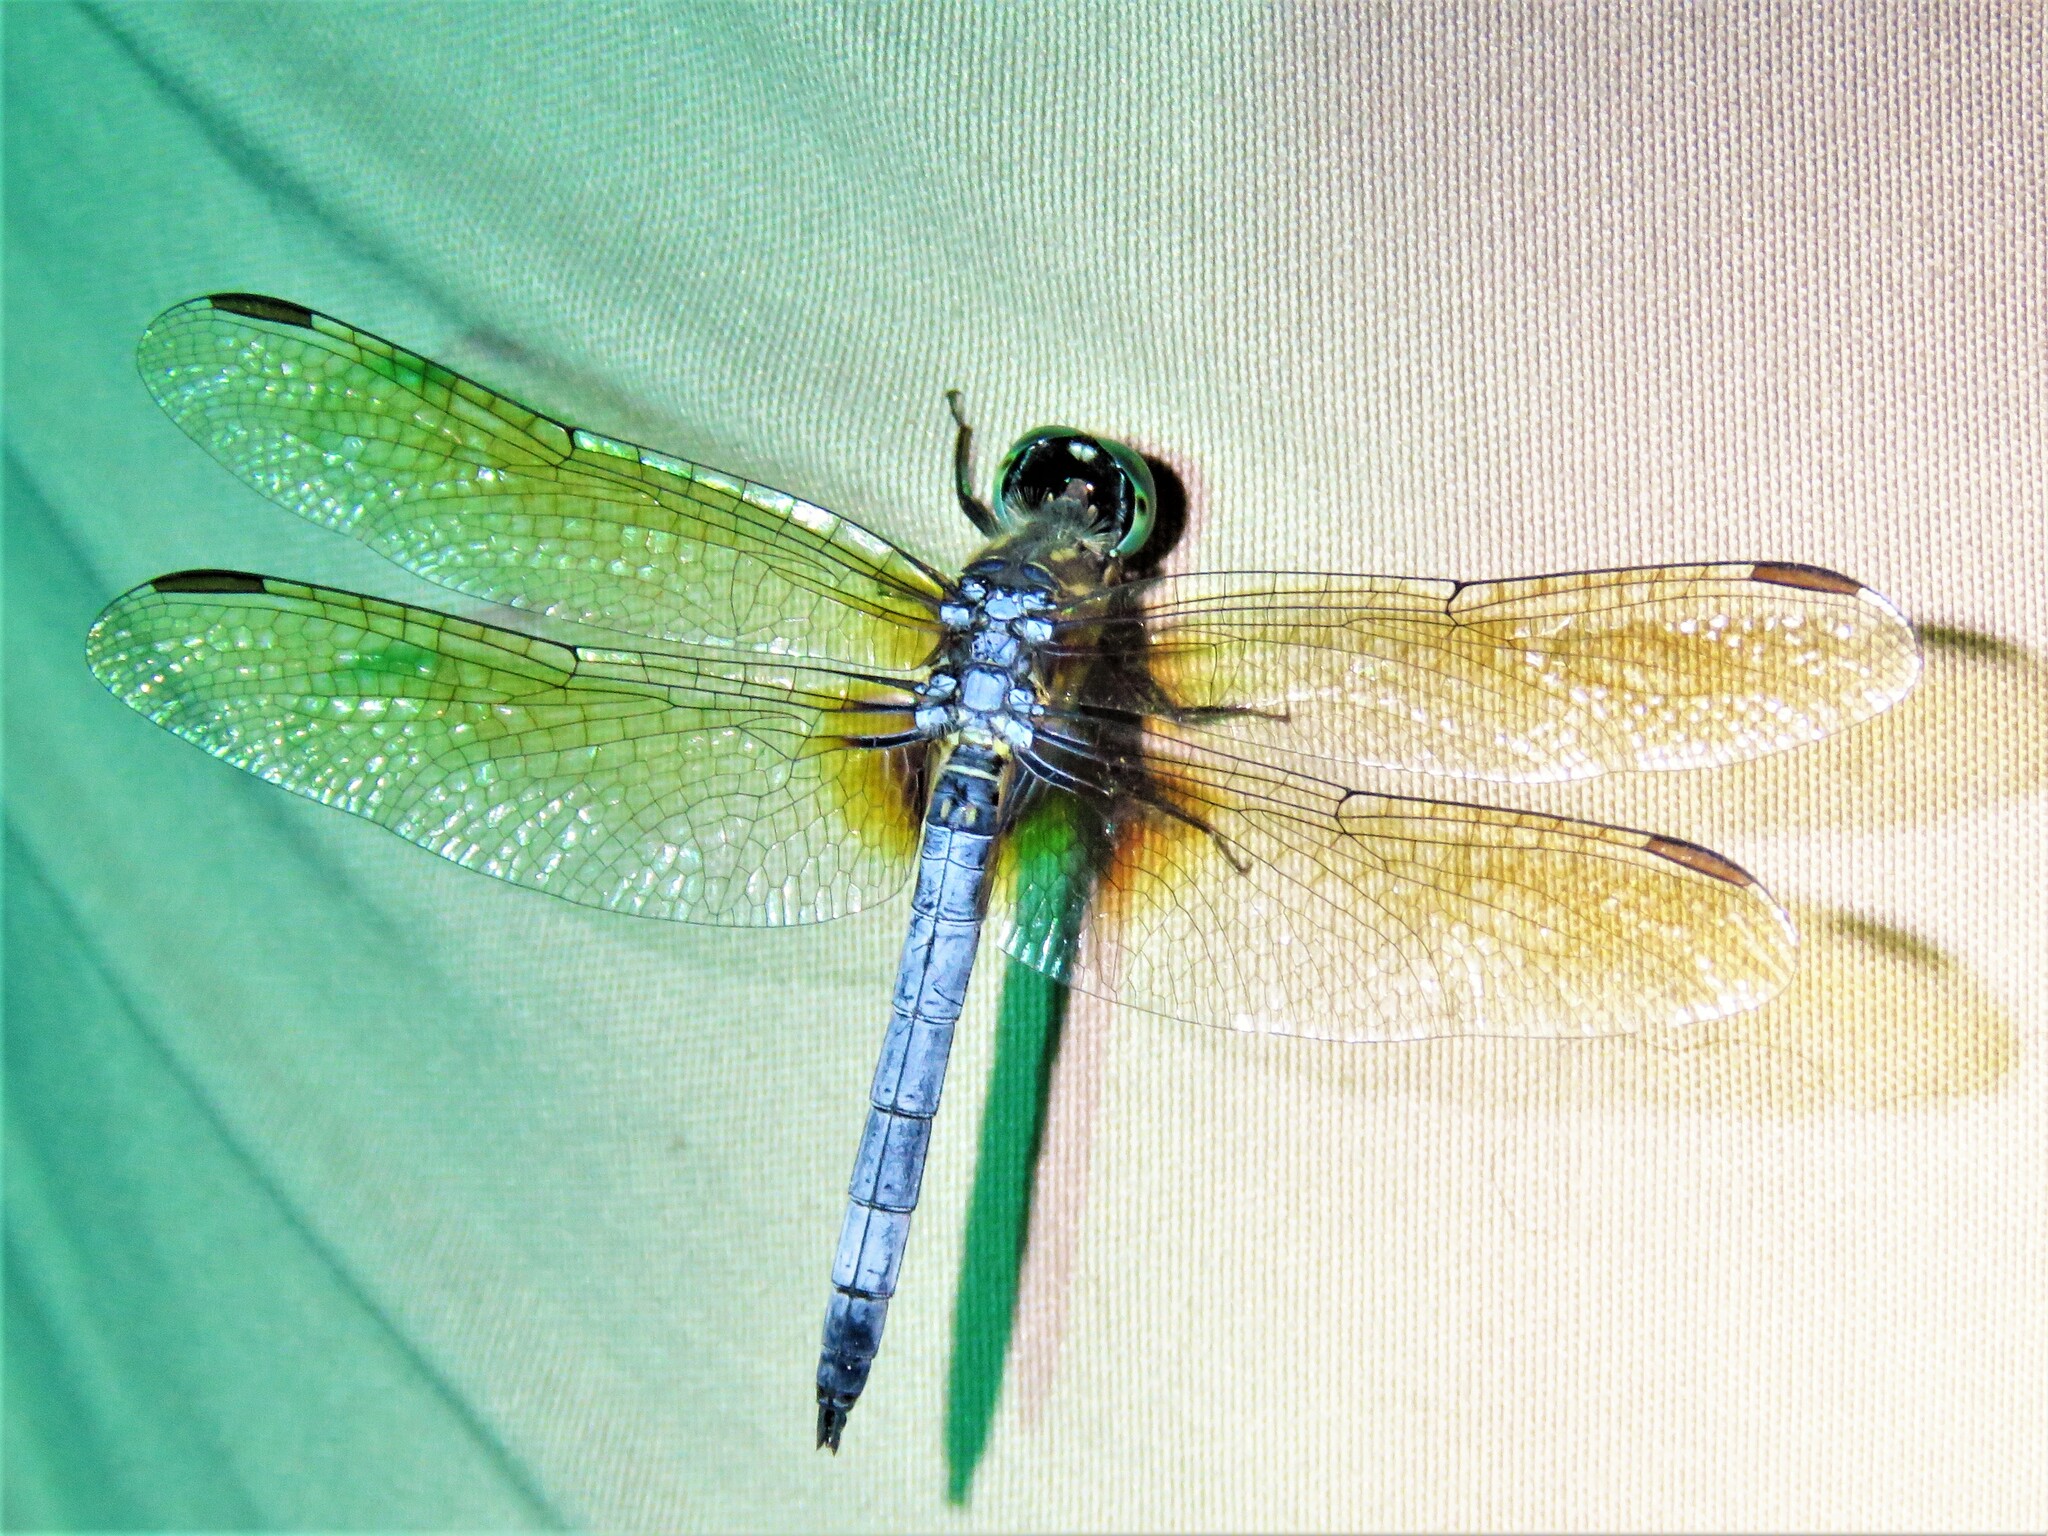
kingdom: Animalia
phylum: Arthropoda
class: Insecta
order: Odonata
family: Libellulidae
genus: Pachydiplax
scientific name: Pachydiplax longipennis
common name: Blue dasher
